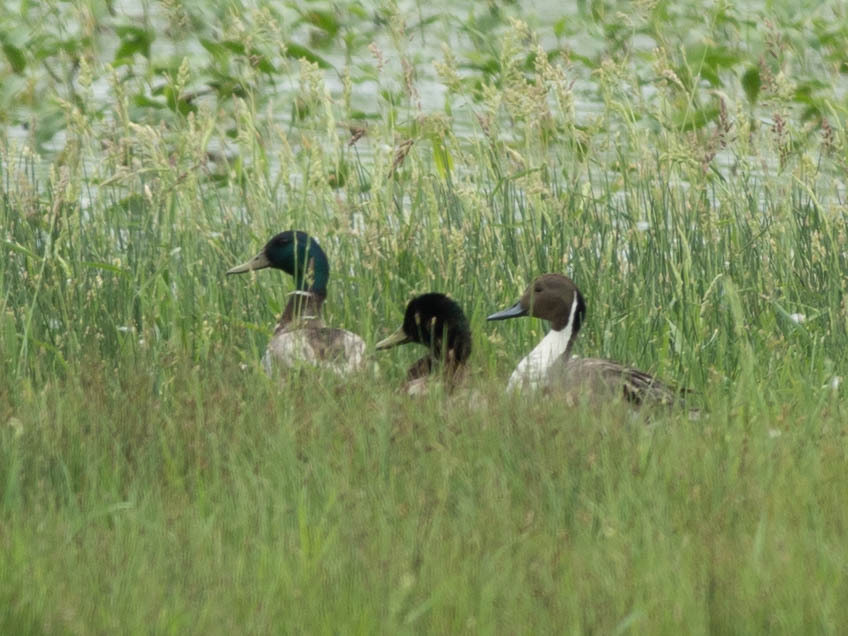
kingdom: Animalia
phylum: Chordata
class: Aves
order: Anseriformes
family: Anatidae
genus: Anas
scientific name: Anas acuta
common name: Northern pintail
